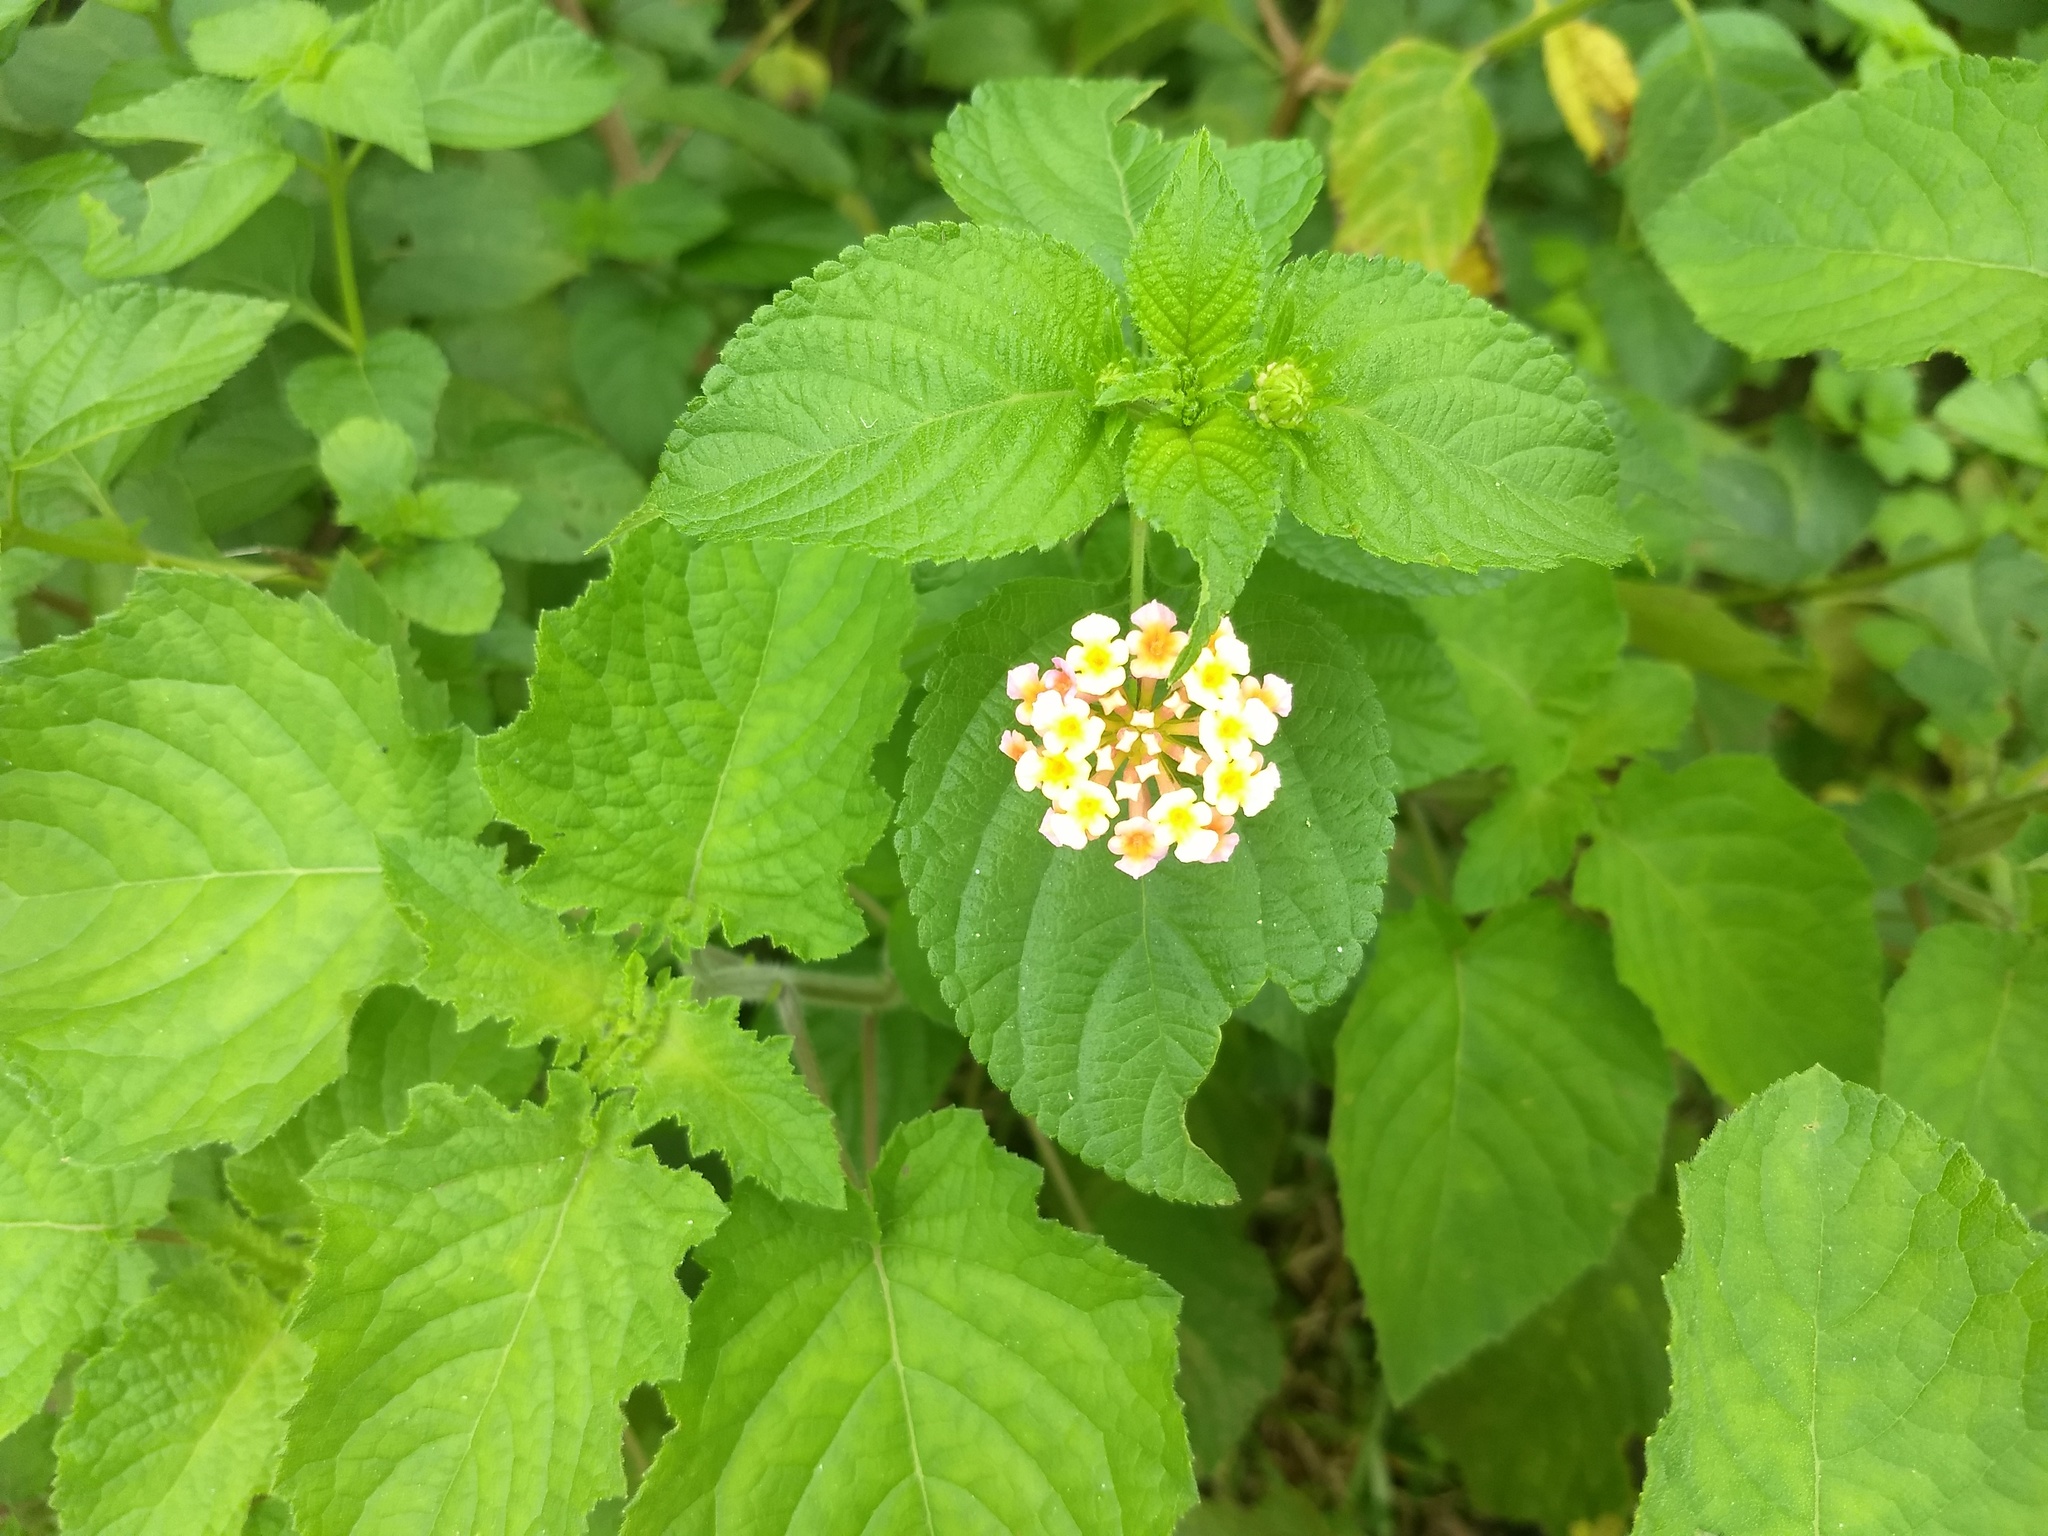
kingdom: Plantae
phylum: Tracheophyta
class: Magnoliopsida
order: Lamiales
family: Verbenaceae
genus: Lantana
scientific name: Lantana camara
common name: Lantana
